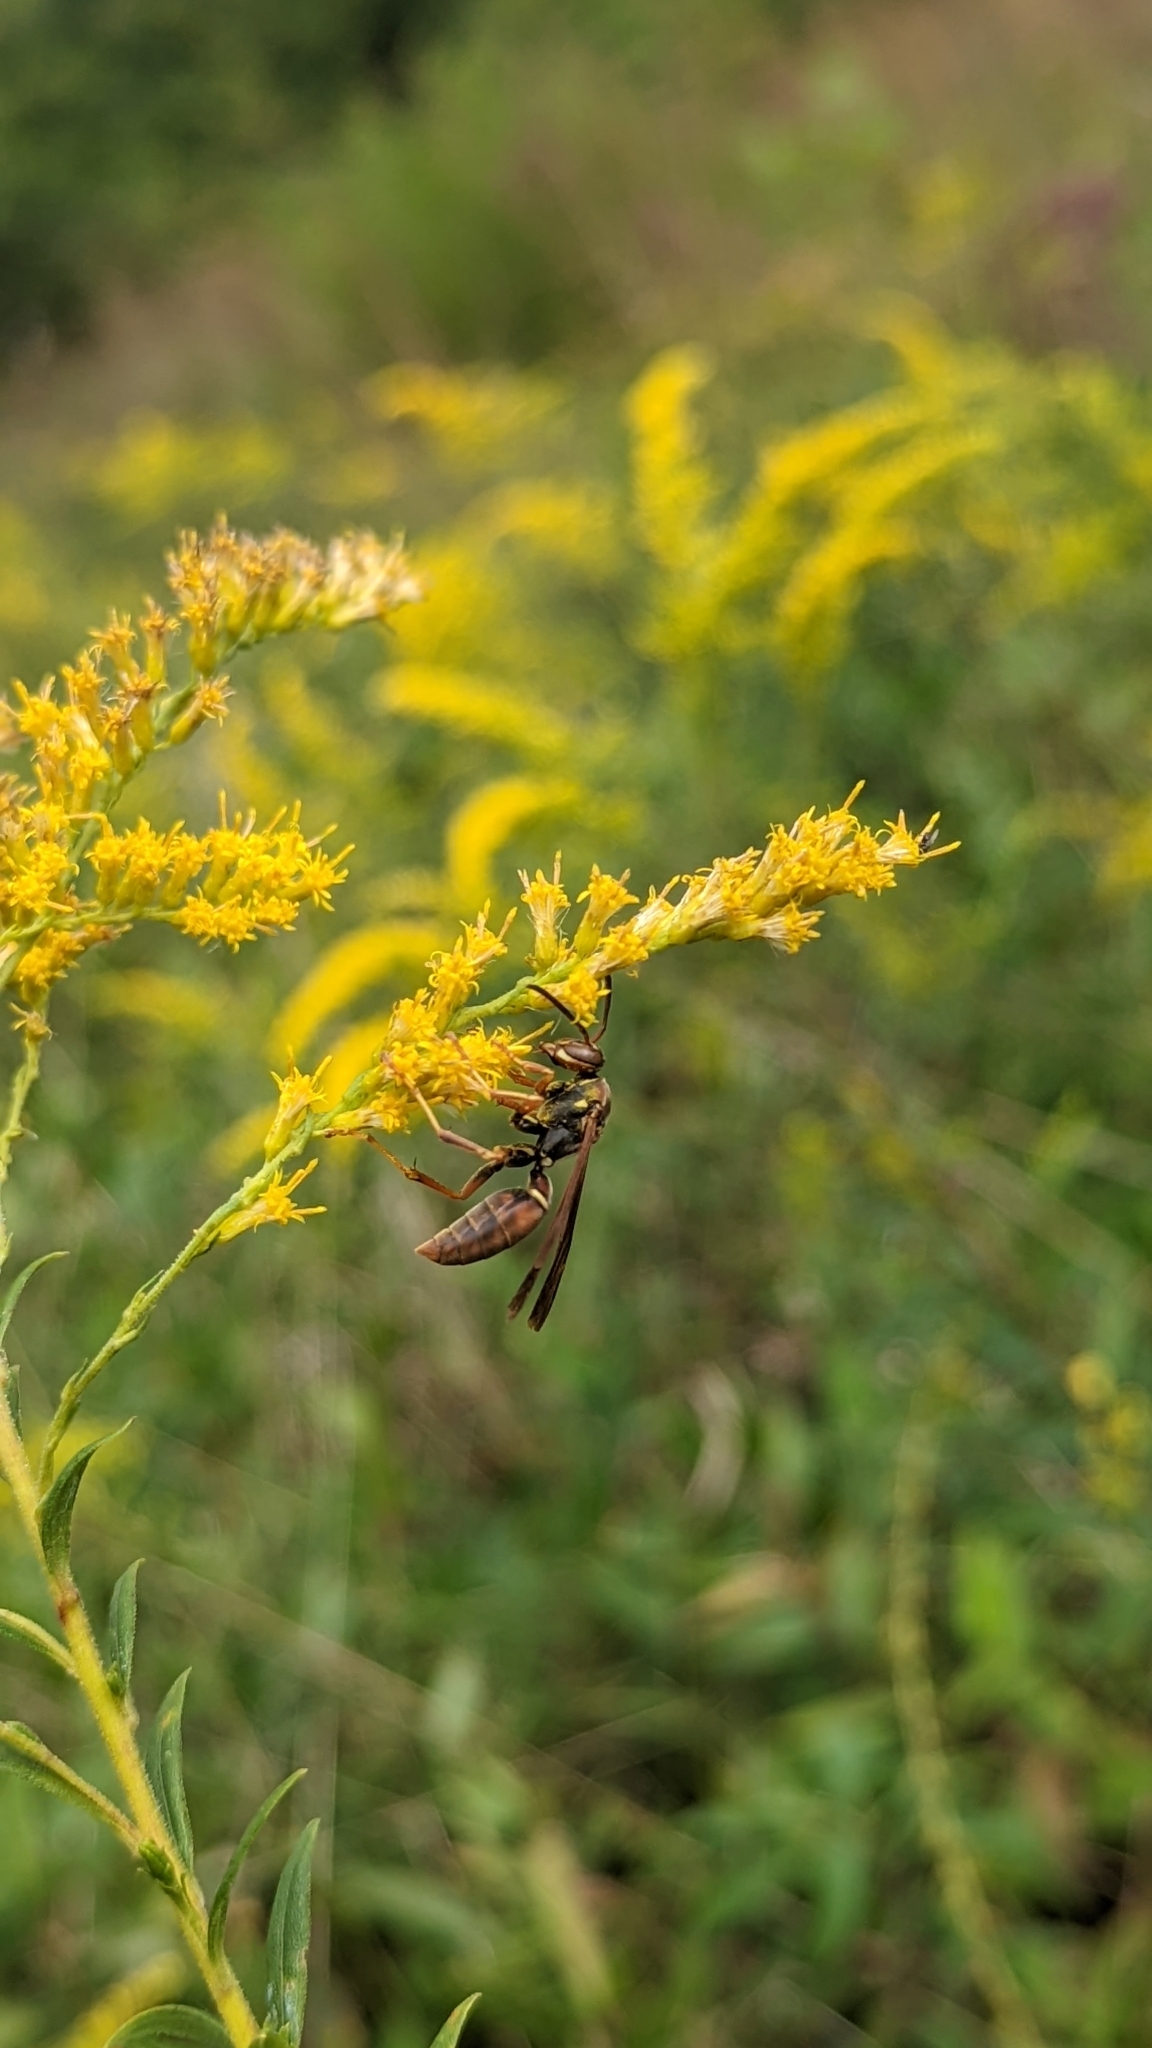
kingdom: Animalia
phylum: Arthropoda
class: Insecta
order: Hymenoptera
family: Eumenidae
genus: Polistes
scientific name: Polistes fuscatus
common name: Dark paper wasp
